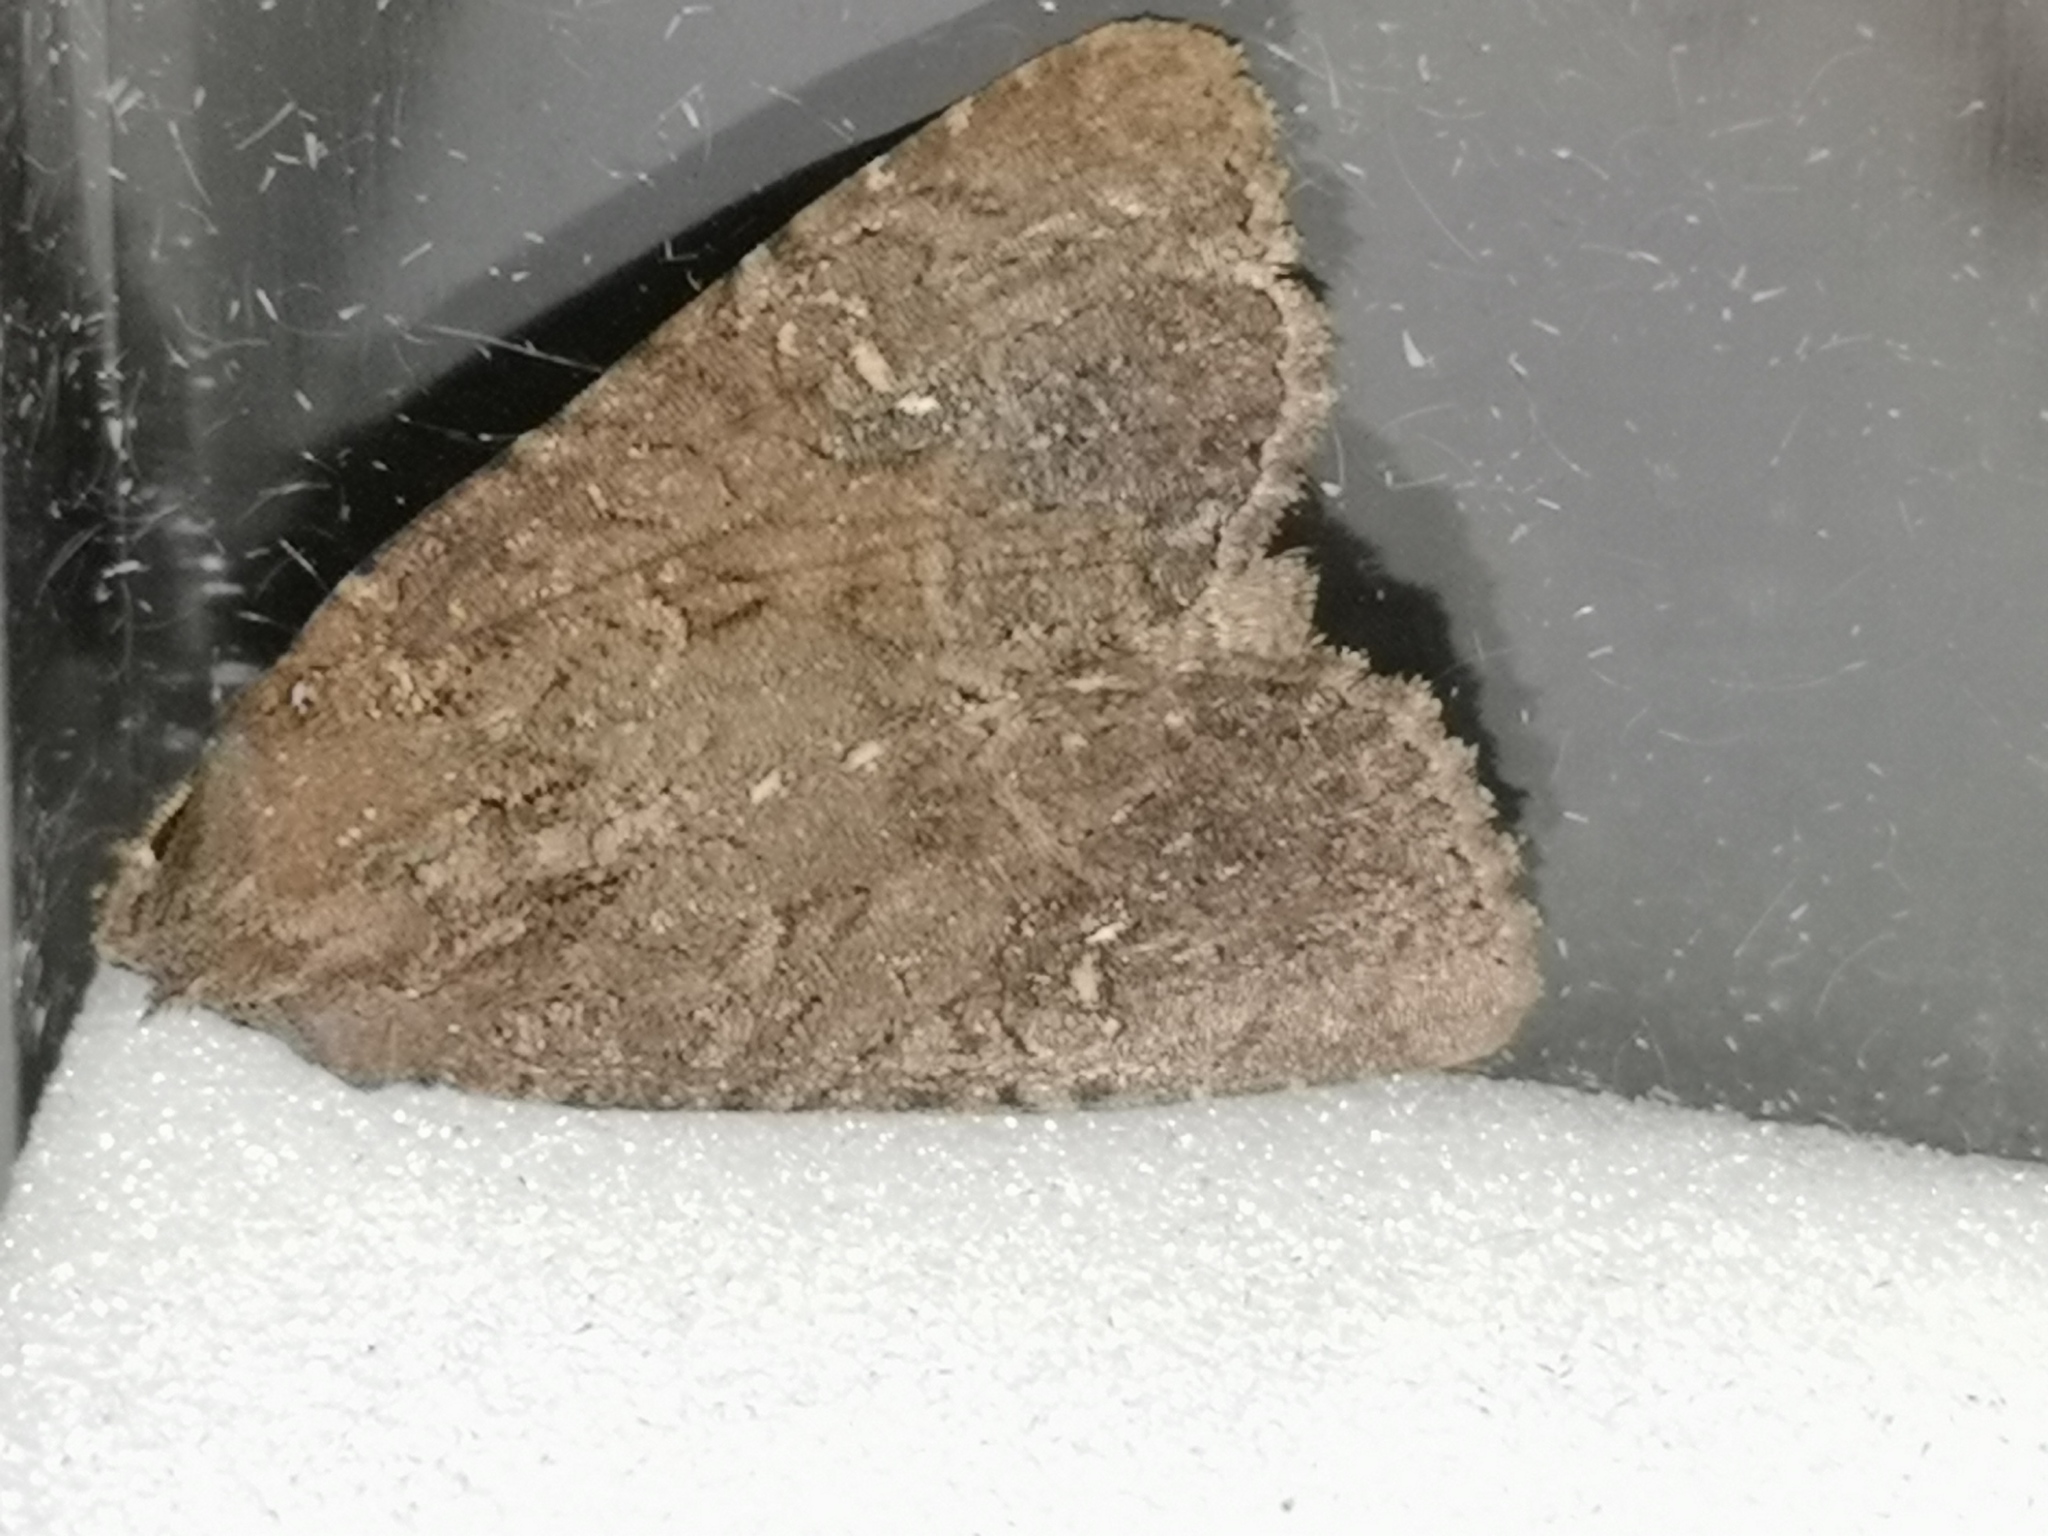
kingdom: Animalia
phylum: Arthropoda
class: Insecta
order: Lepidoptera
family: Noctuidae
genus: Anarta
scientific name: Anarta trifolii
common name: Clover cutworm moth
